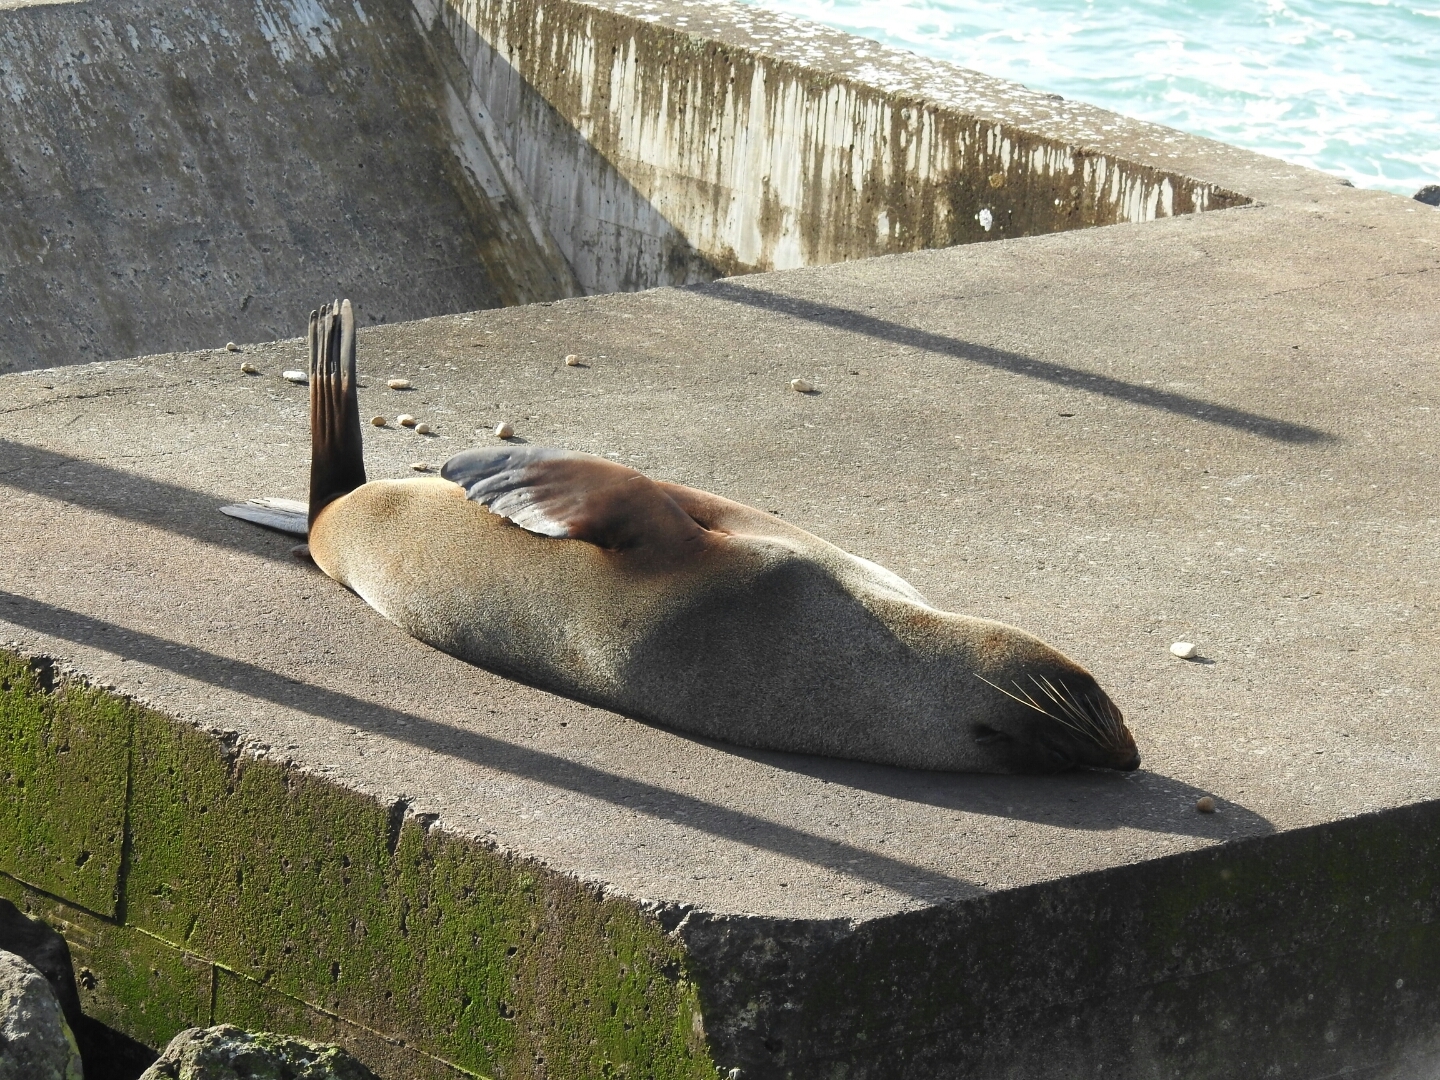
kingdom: Animalia
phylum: Chordata
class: Mammalia
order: Carnivora
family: Otariidae
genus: Arctocephalus
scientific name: Arctocephalus forsteri
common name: New zealand fur seal
